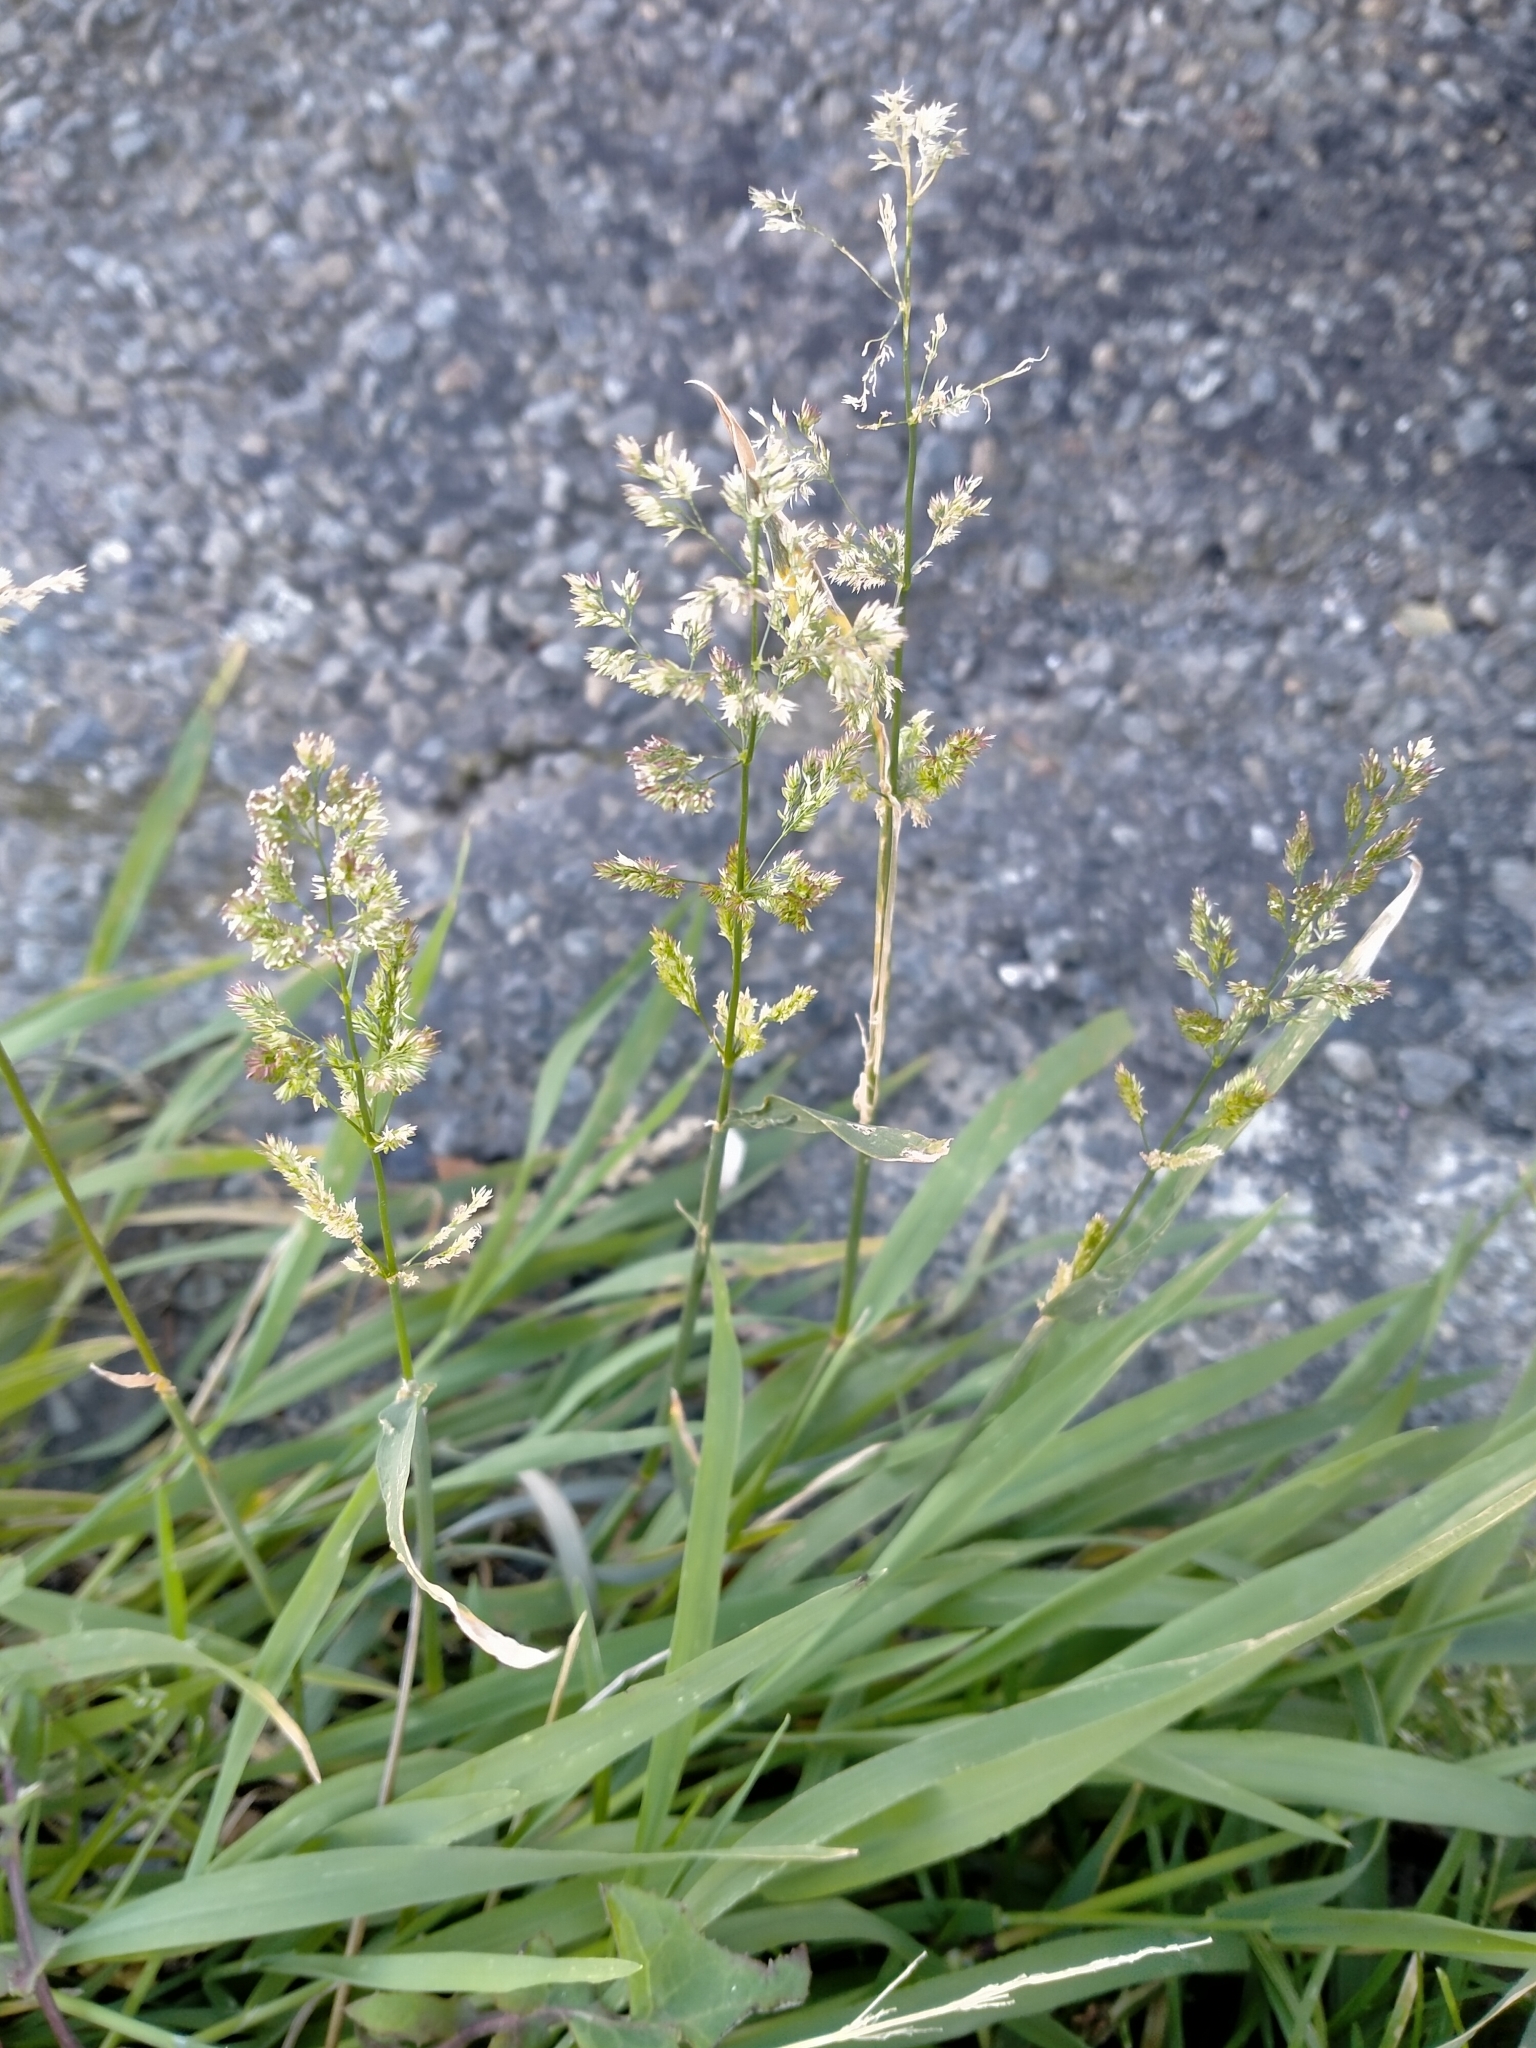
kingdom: Plantae
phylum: Tracheophyta
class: Liliopsida
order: Poales
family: Poaceae
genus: Polypogon
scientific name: Polypogon viridis
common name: Water bent
